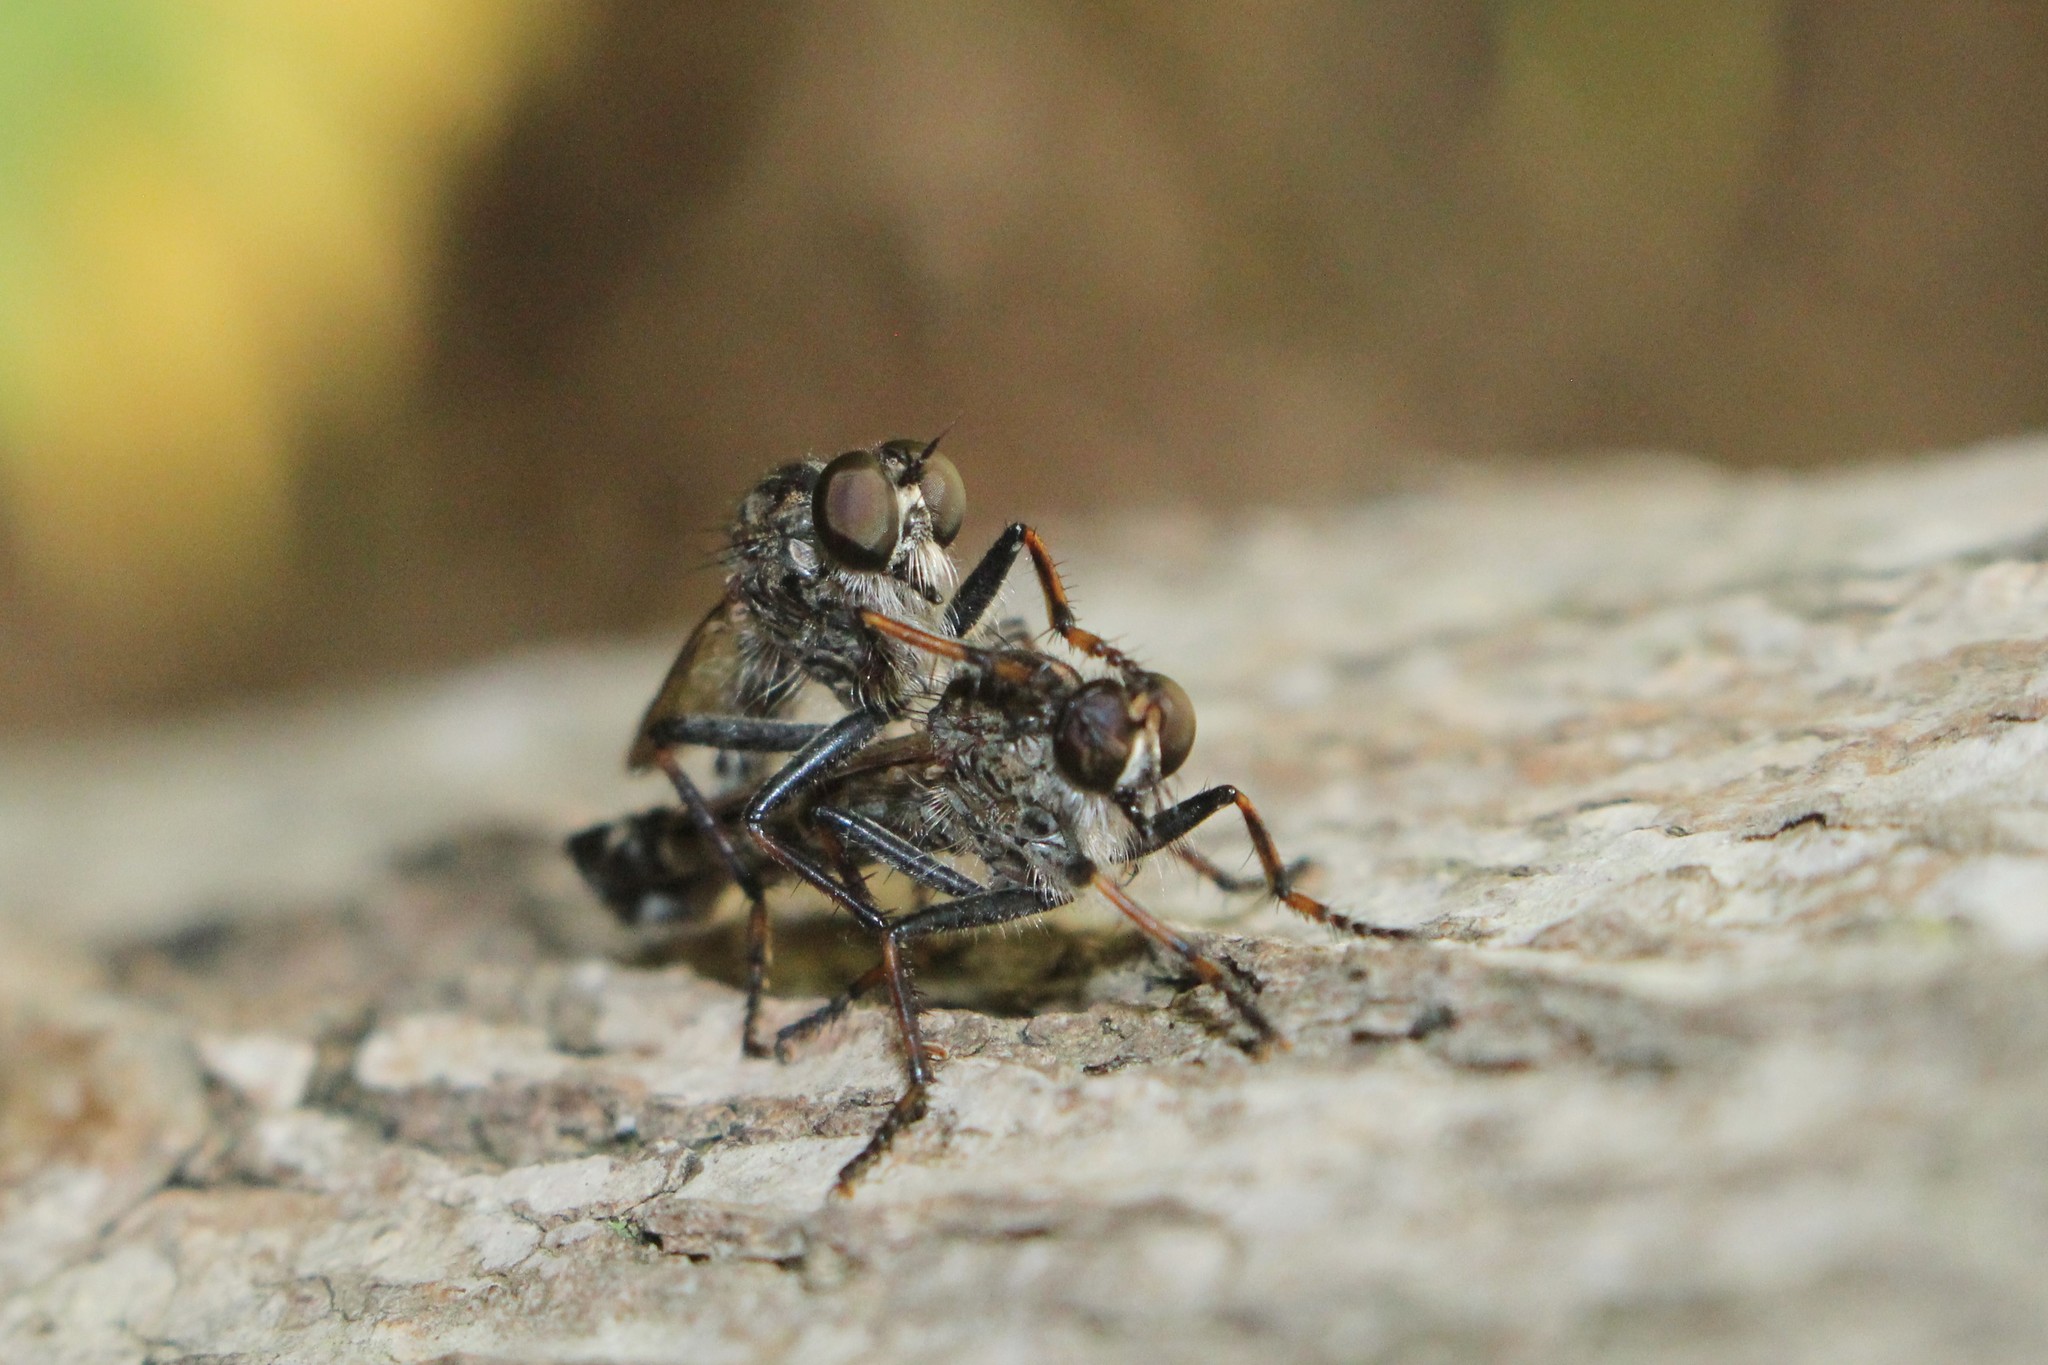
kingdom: Animalia
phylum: Arthropoda
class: Insecta
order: Diptera
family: Asilidae
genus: Machimus
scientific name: Machimus sadyates
